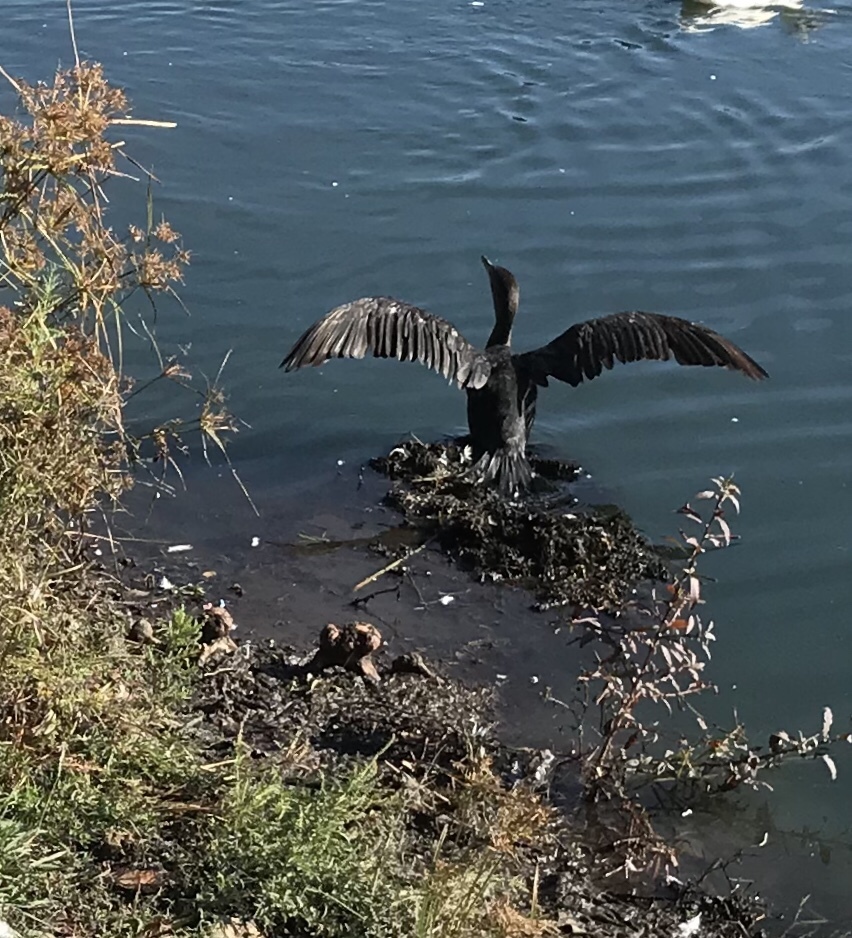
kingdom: Animalia
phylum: Chordata
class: Aves
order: Suliformes
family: Phalacrocoracidae
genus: Phalacrocorax
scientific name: Phalacrocorax auritus
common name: Double-crested cormorant
